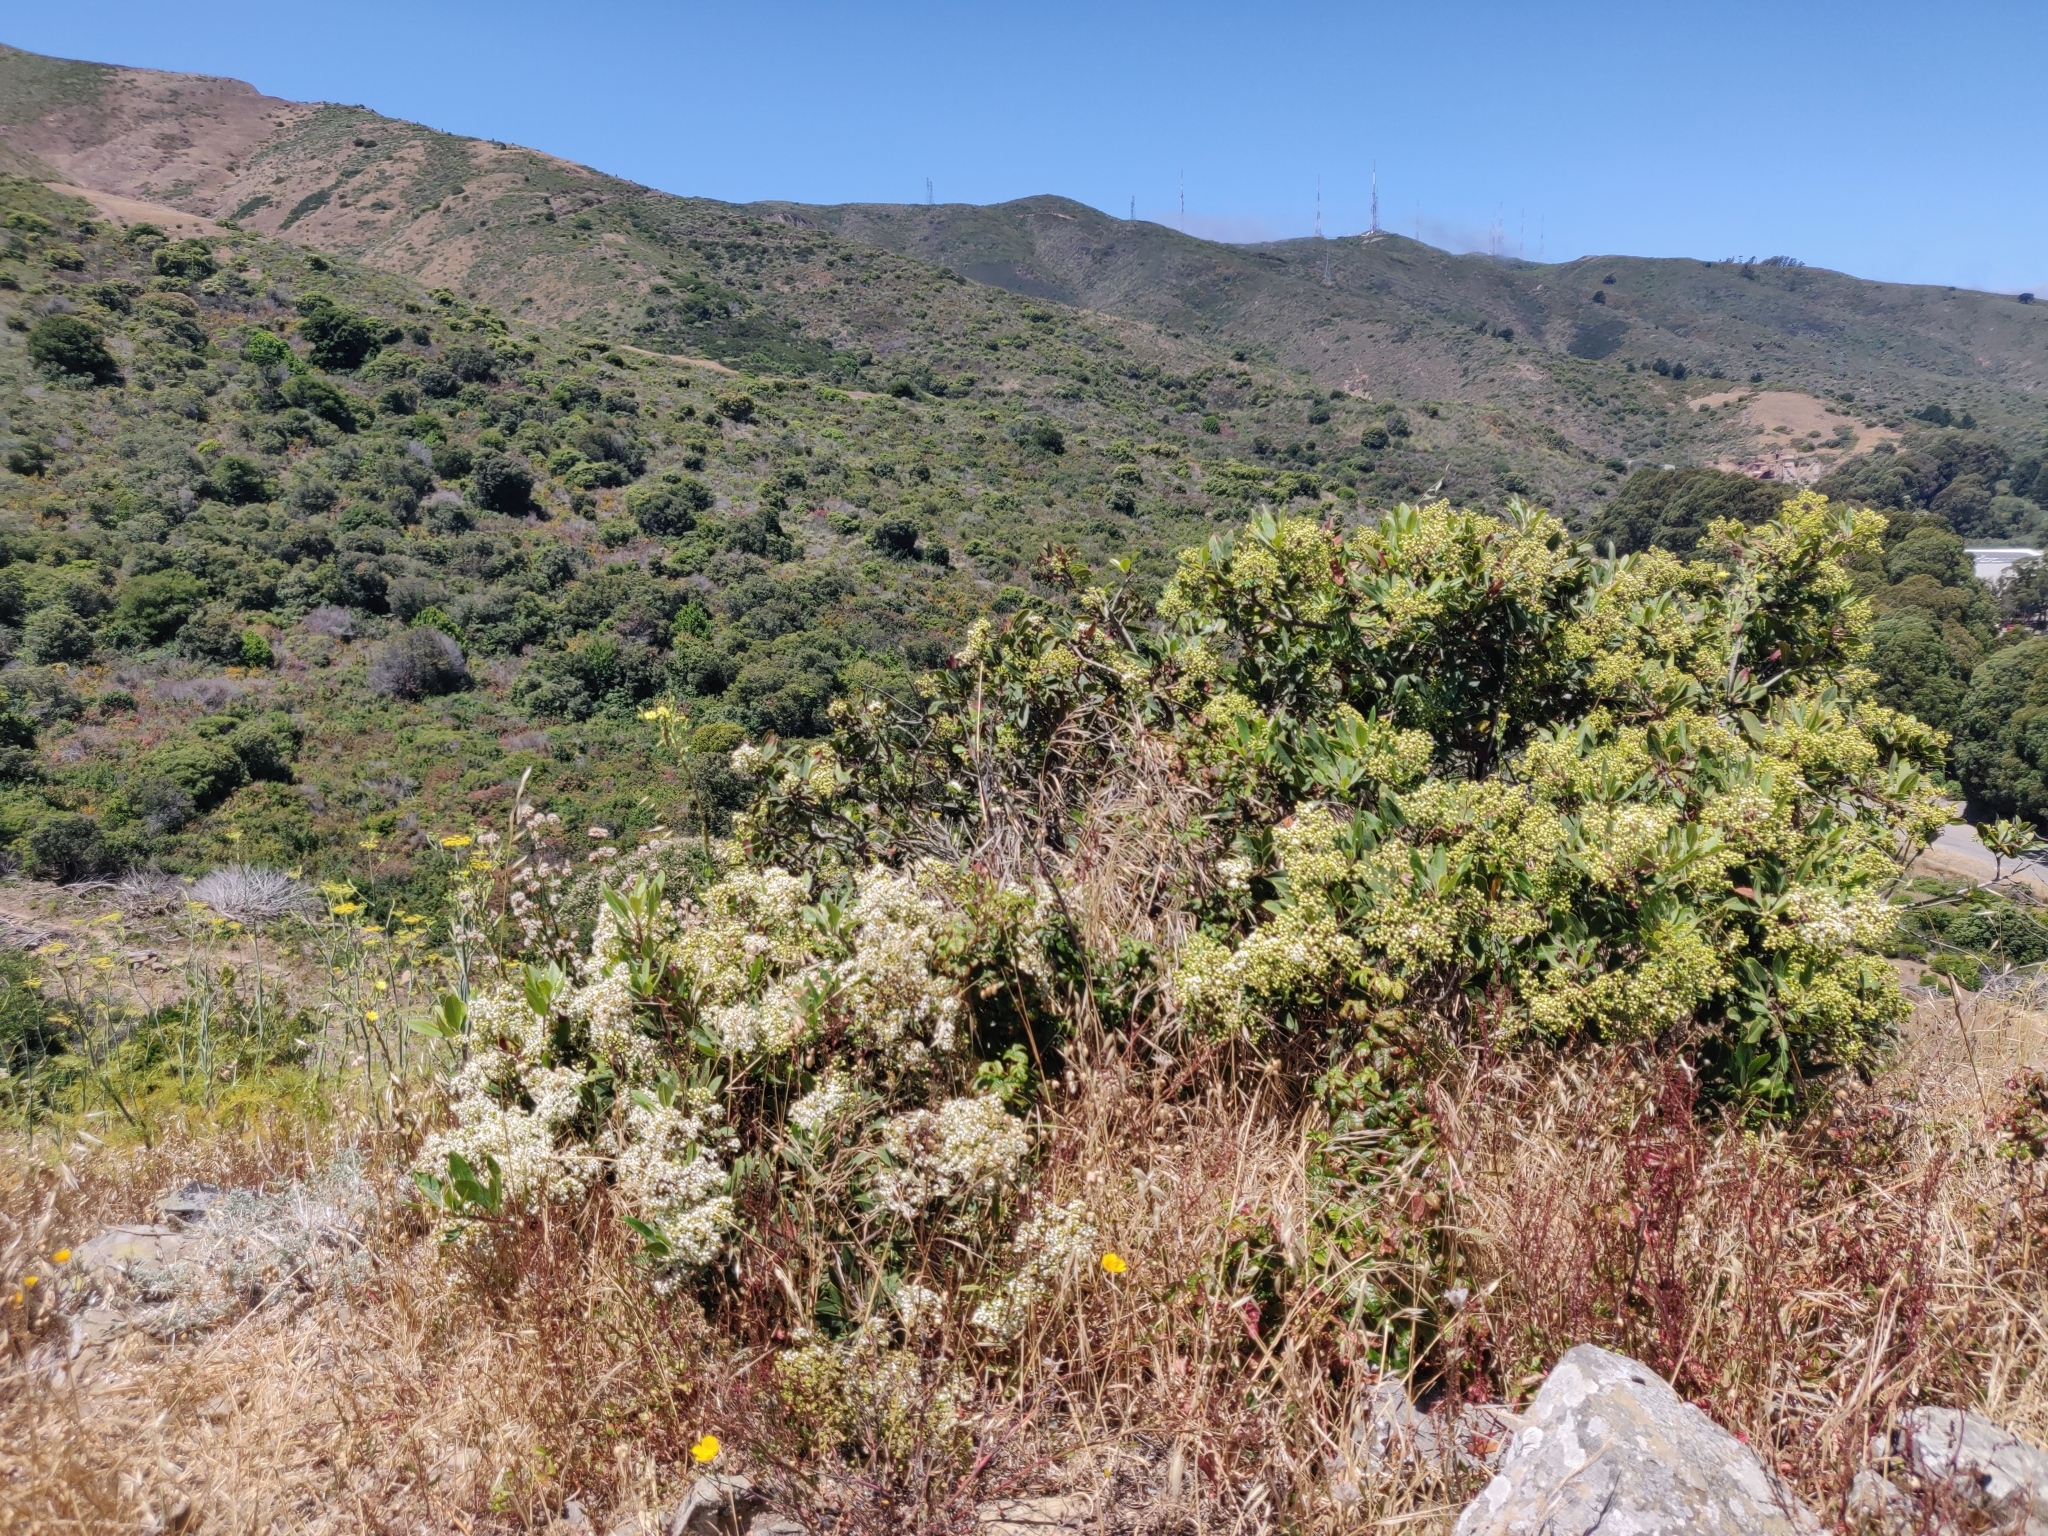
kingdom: Plantae
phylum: Tracheophyta
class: Magnoliopsida
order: Rosales
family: Rosaceae
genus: Heteromeles
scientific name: Heteromeles arbutifolia
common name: California-holly
